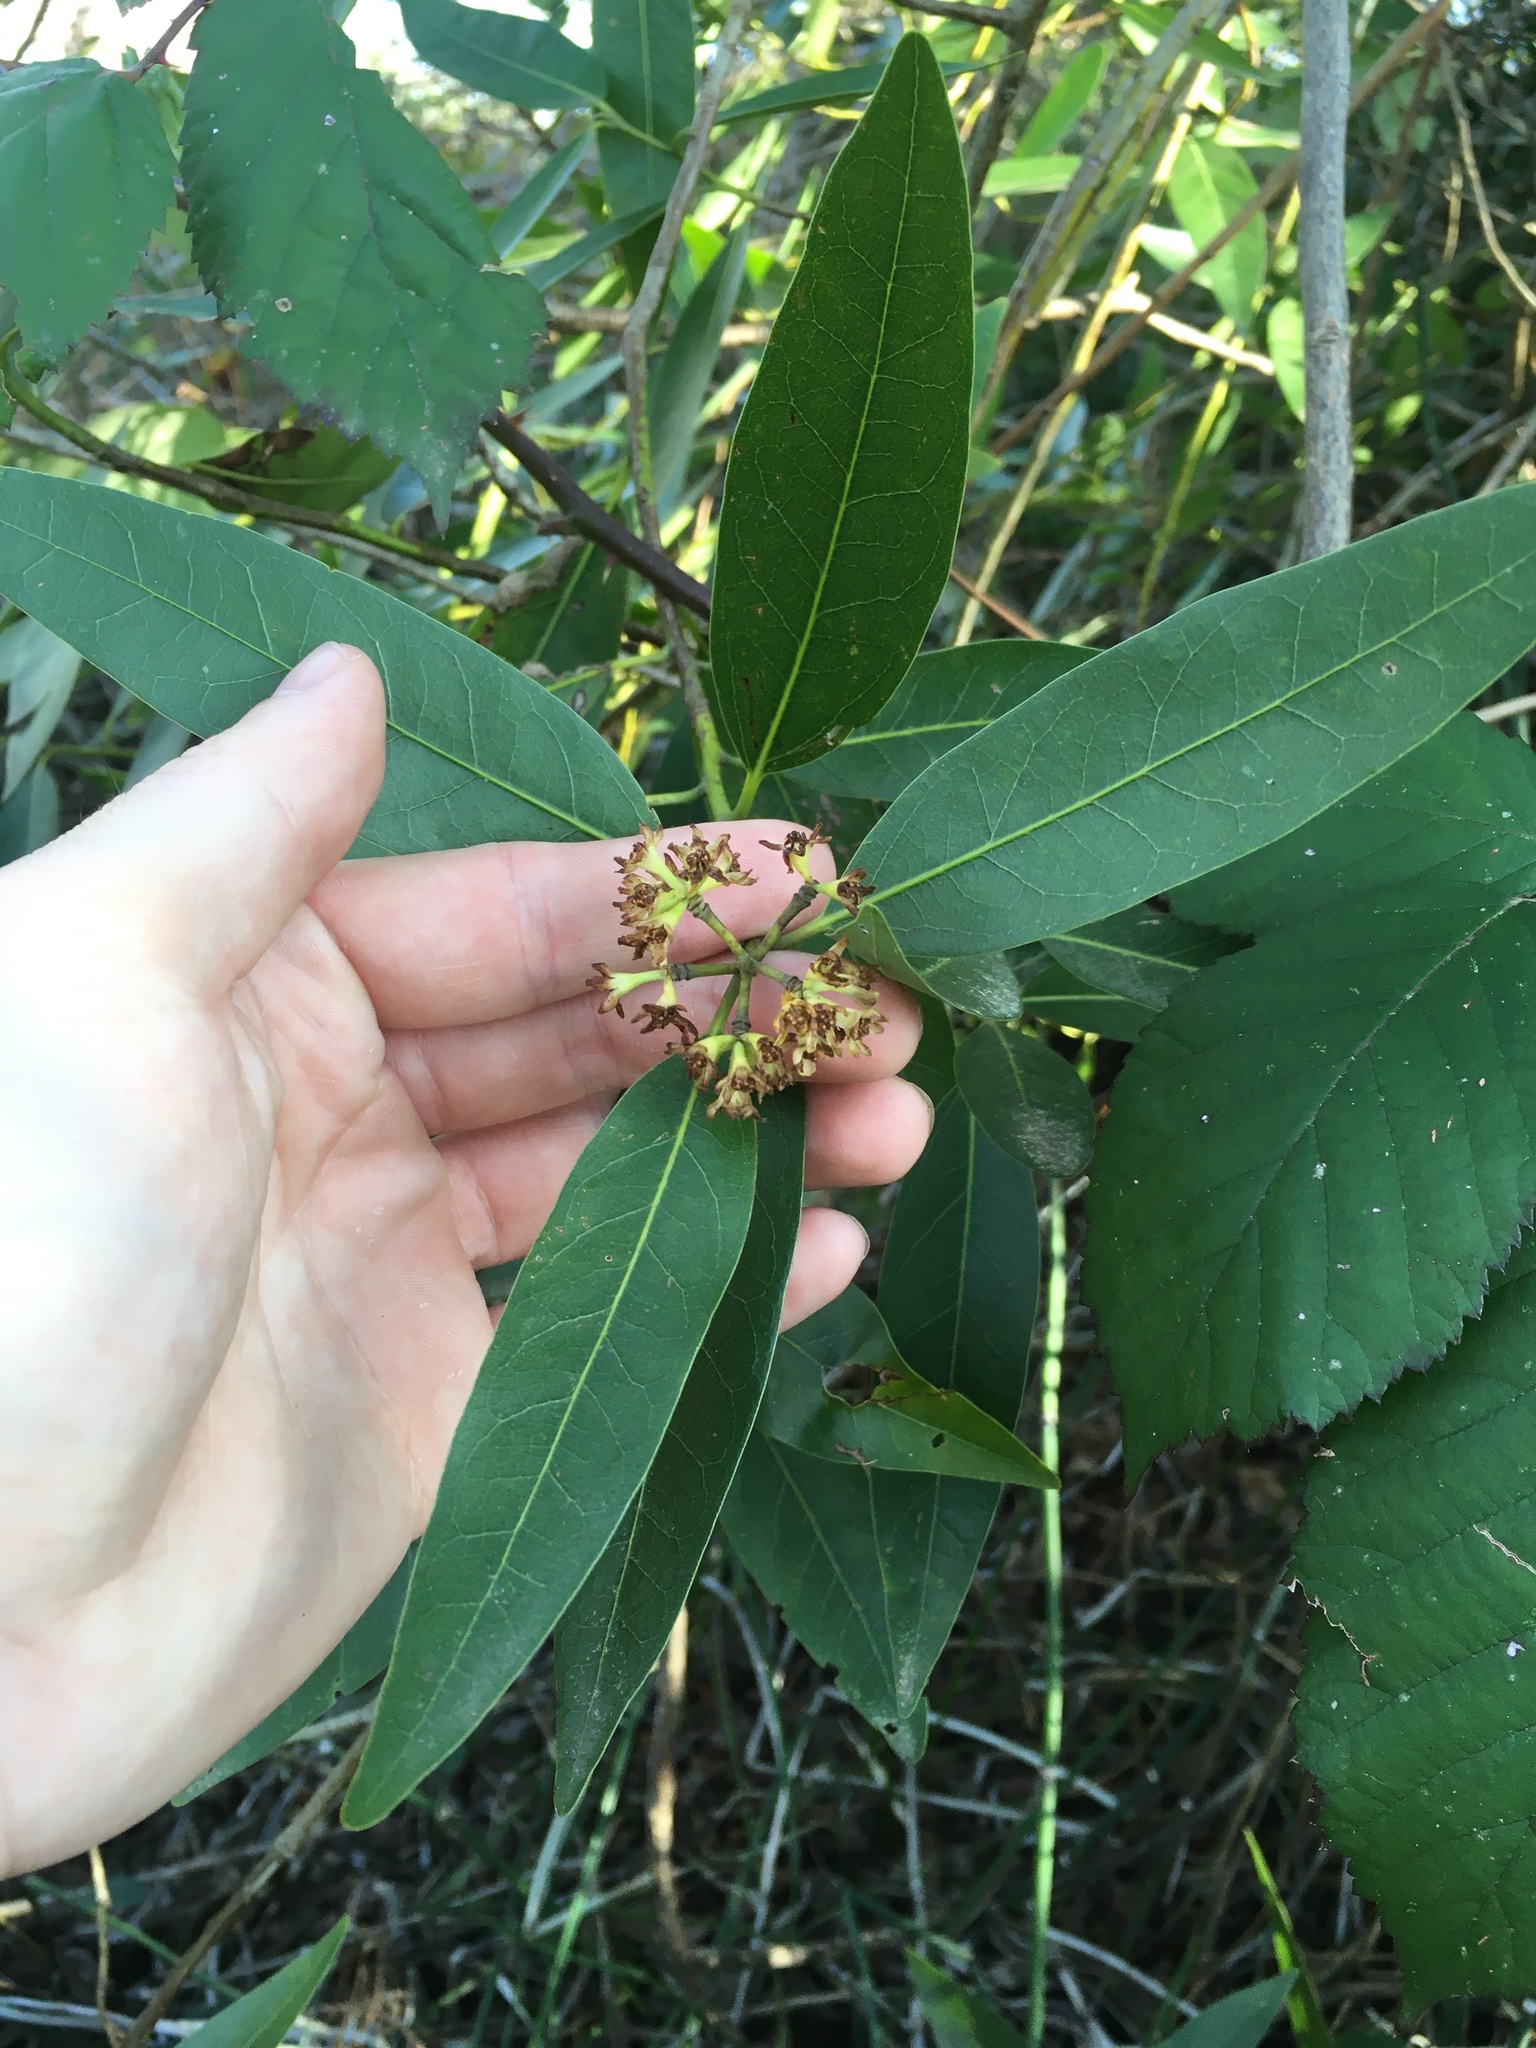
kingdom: Plantae
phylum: Tracheophyta
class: Magnoliopsida
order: Laurales
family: Lauraceae
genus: Umbellularia
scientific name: Umbellularia californica
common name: California bay
